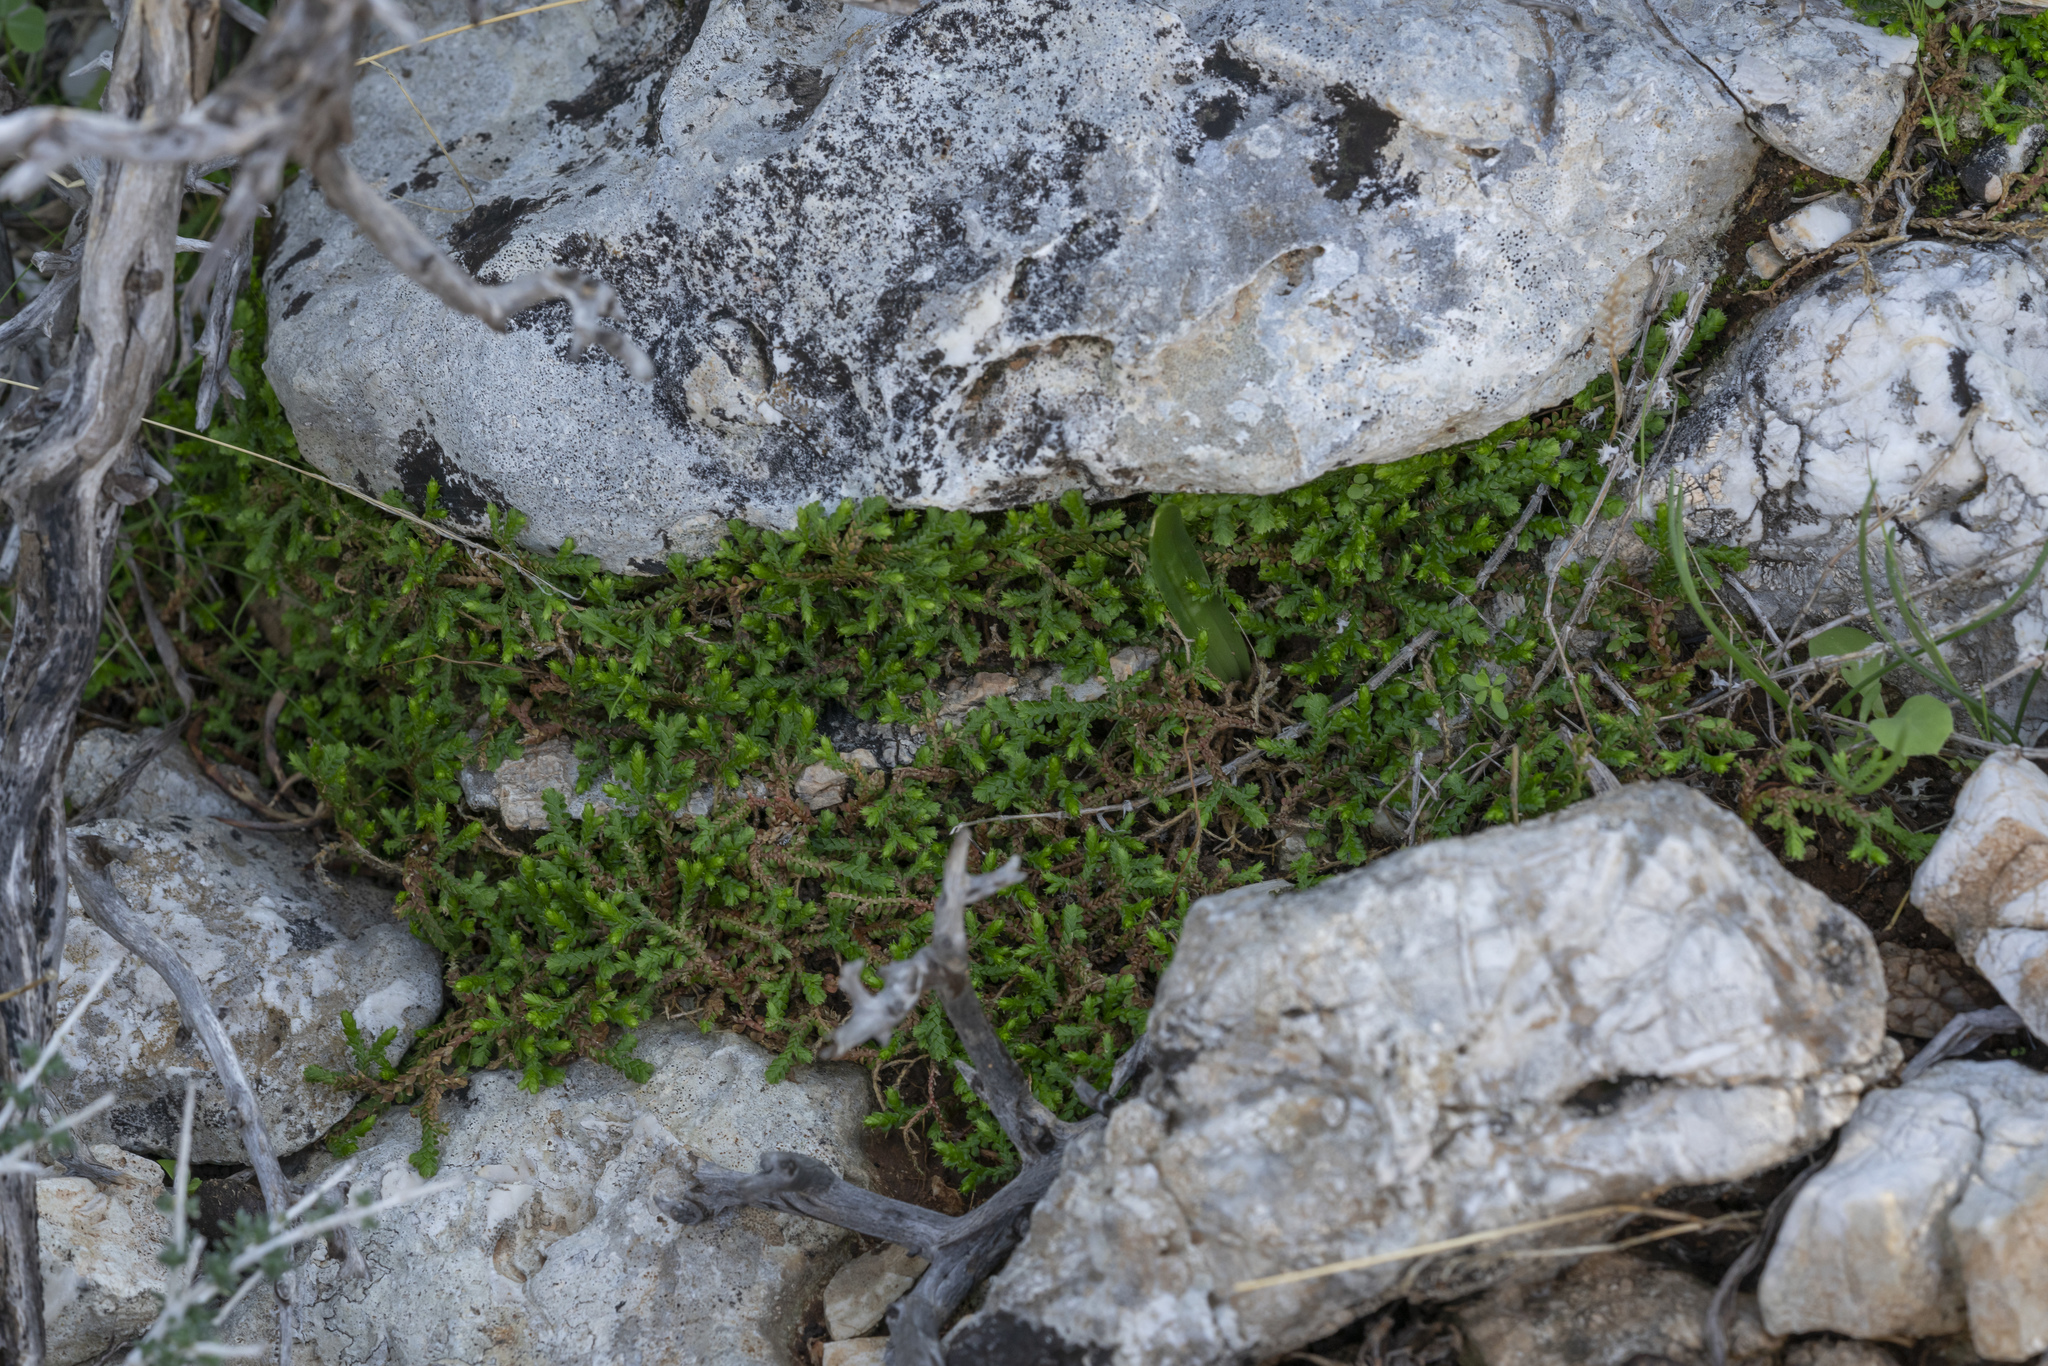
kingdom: Plantae
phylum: Tracheophyta
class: Lycopodiopsida
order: Selaginellales
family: Selaginellaceae
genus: Selaginella
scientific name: Selaginella denticulata
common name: Toothed-leaved clubmoss
